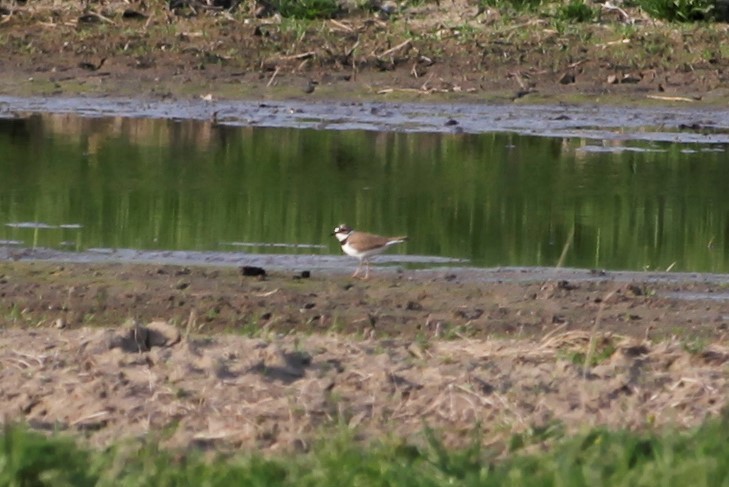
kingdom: Animalia
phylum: Chordata
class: Aves
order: Charadriiformes
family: Charadriidae
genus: Charadrius
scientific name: Charadrius dubius
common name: Little ringed plover
